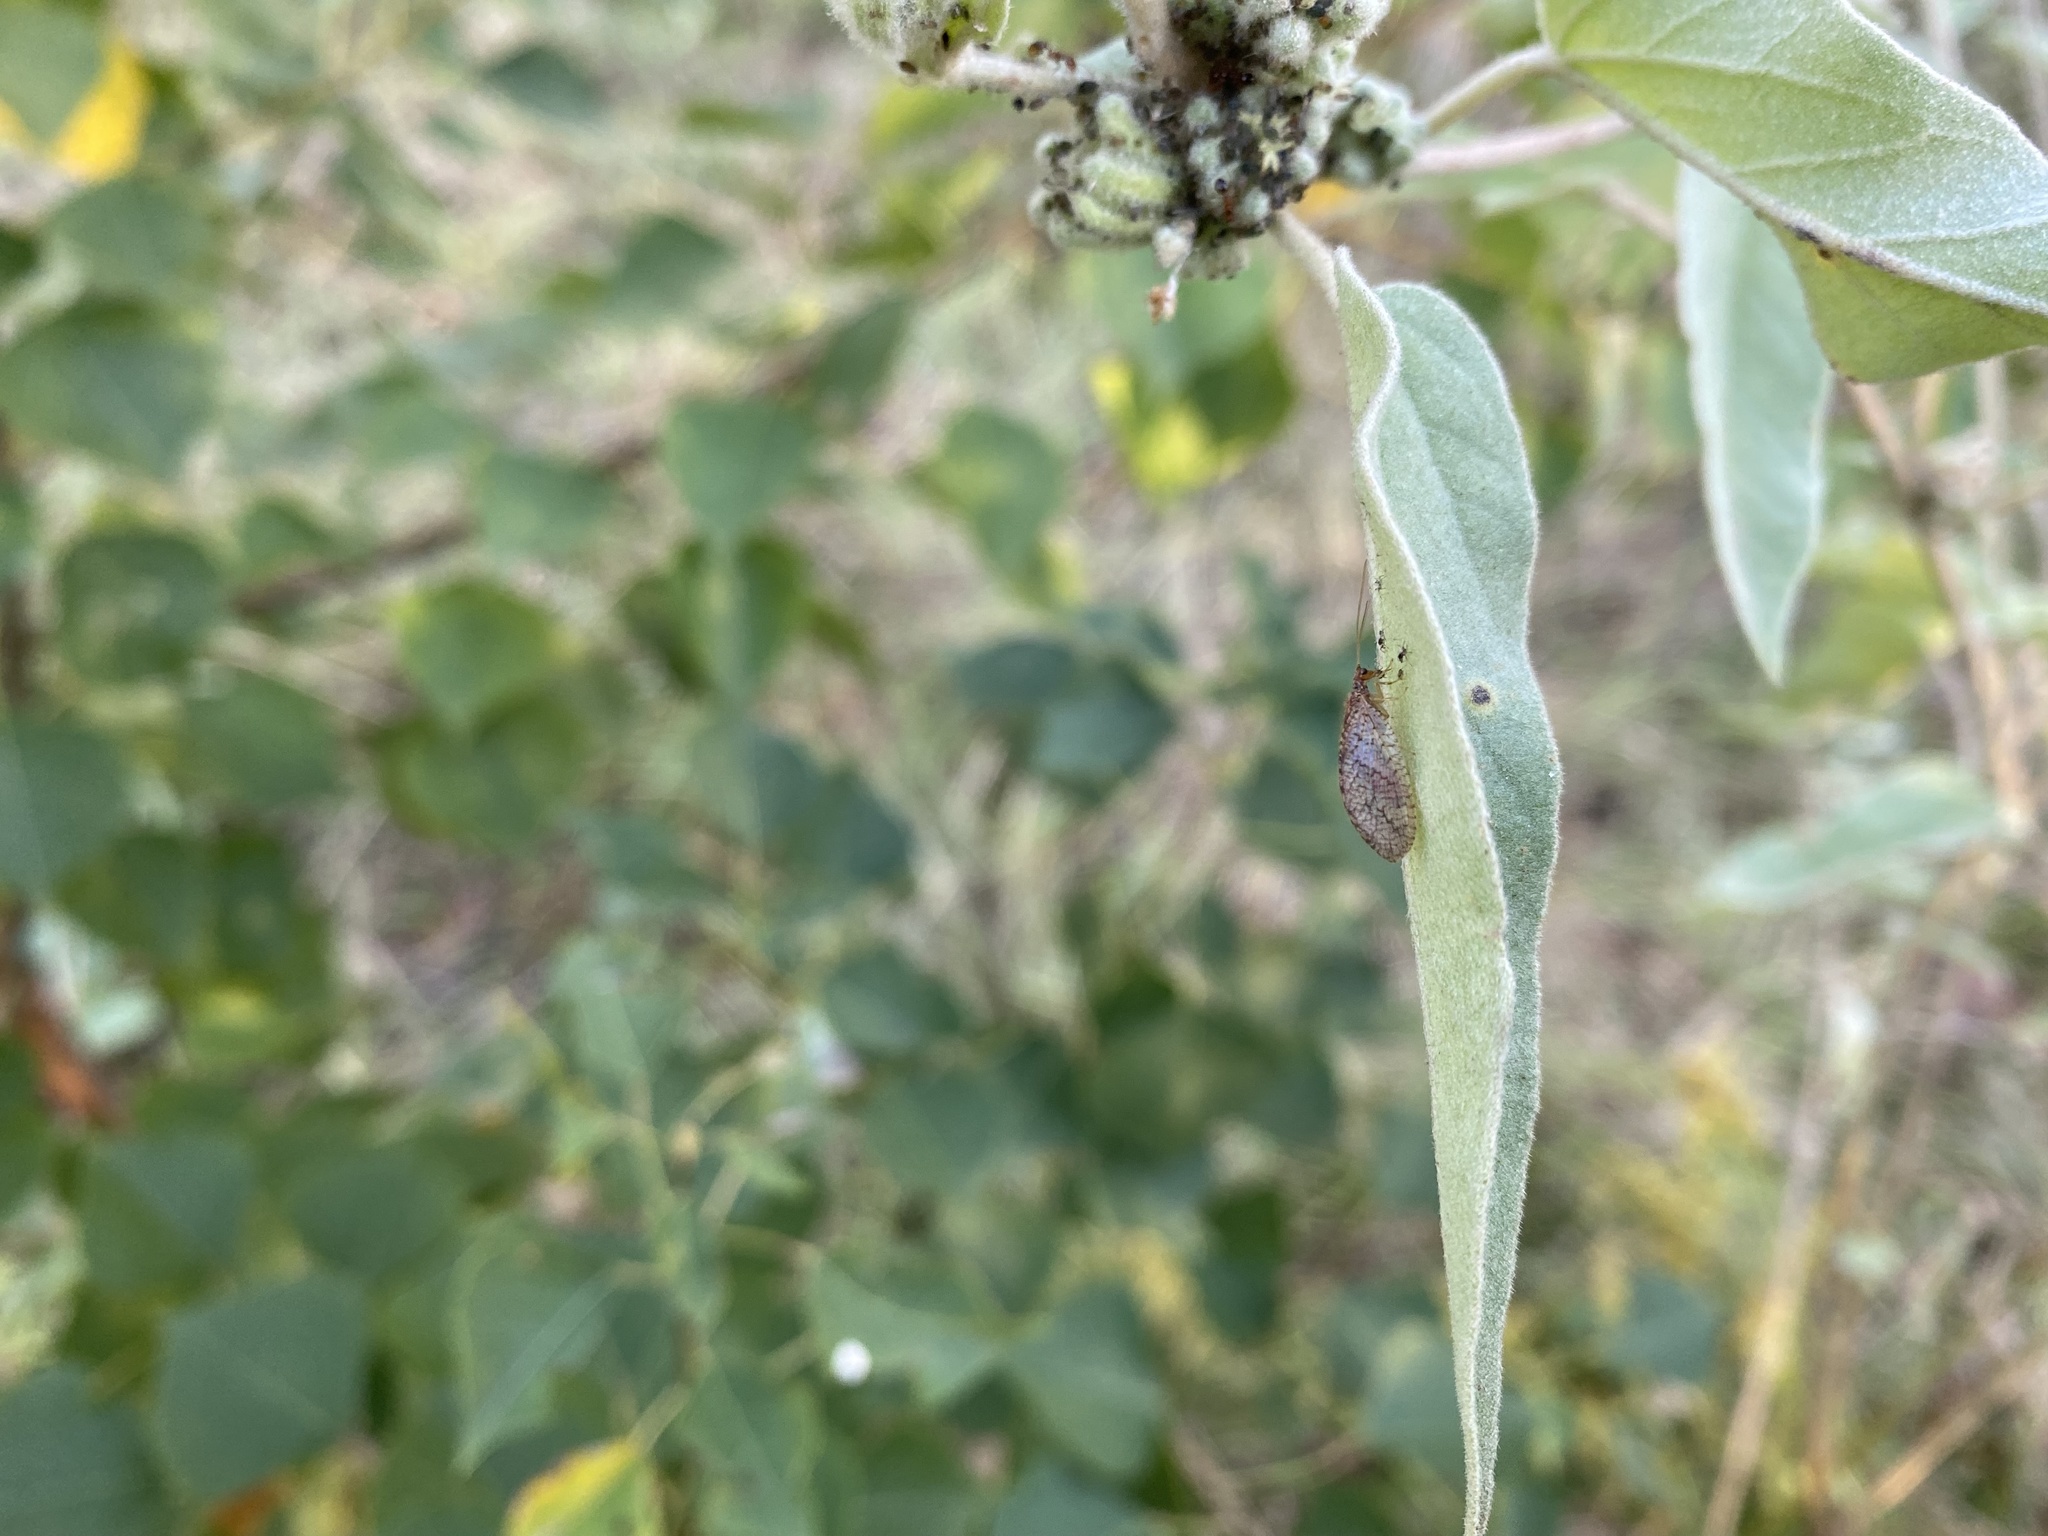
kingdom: Animalia
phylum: Arthropoda
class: Insecta
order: Neuroptera
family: Hemerobiidae
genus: Micromus
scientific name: Micromus posticus
